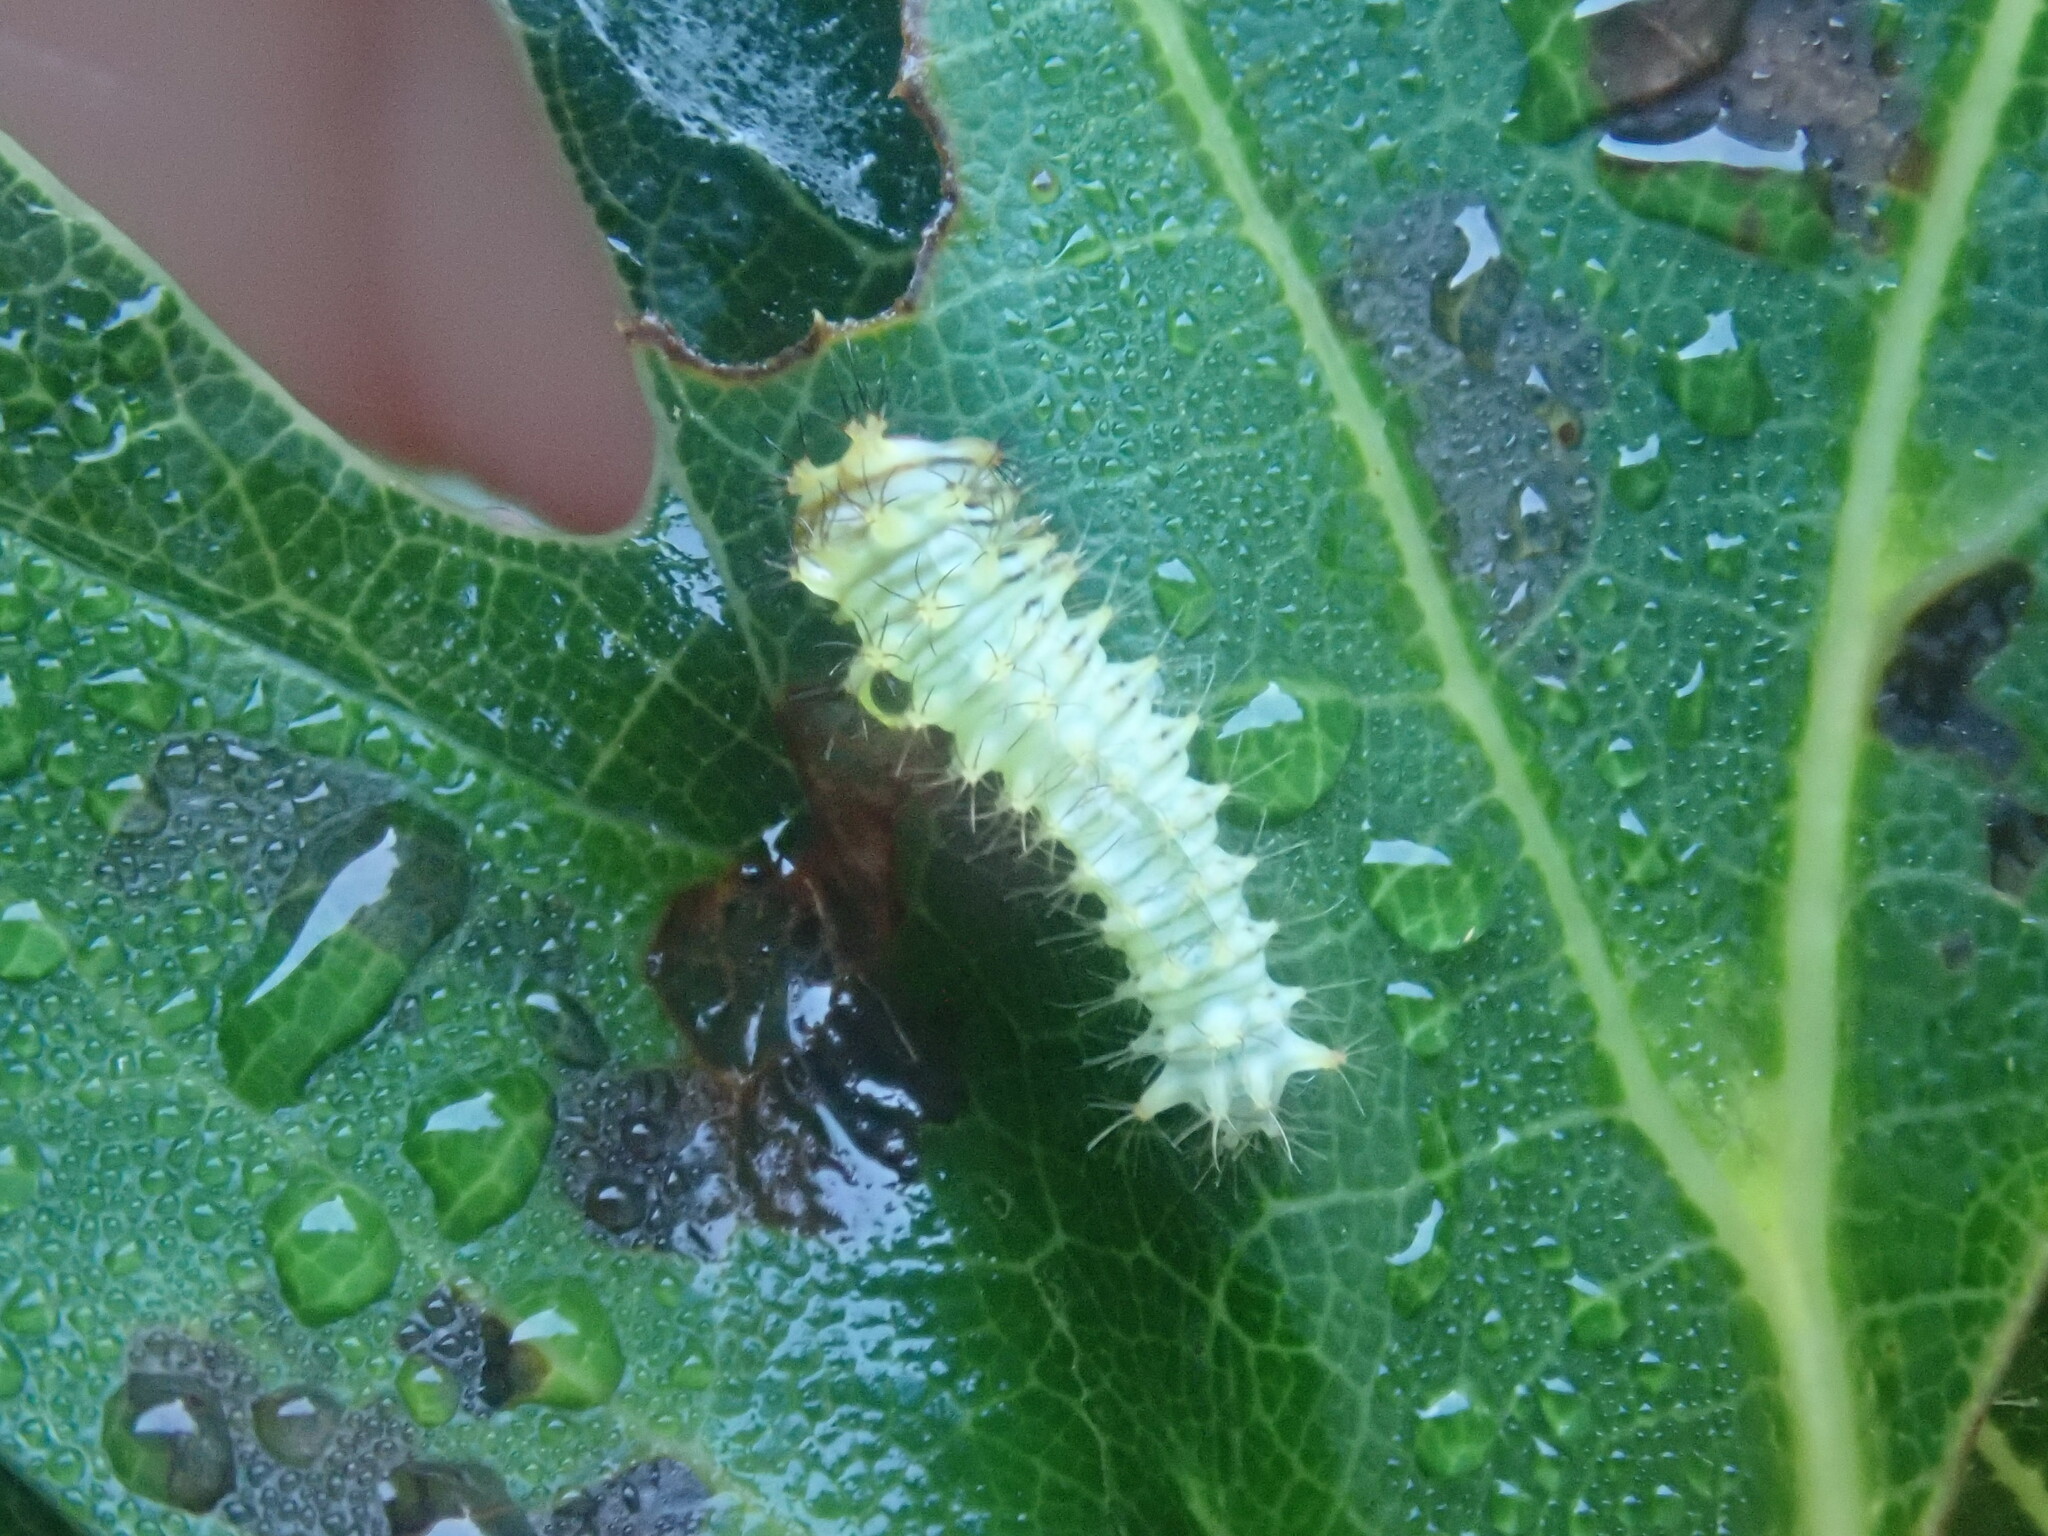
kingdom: Animalia
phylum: Arthropoda
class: Insecta
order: Lepidoptera
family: Saturniidae
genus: Antheraea
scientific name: Antheraea polyphemus
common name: Polyphemus moth
